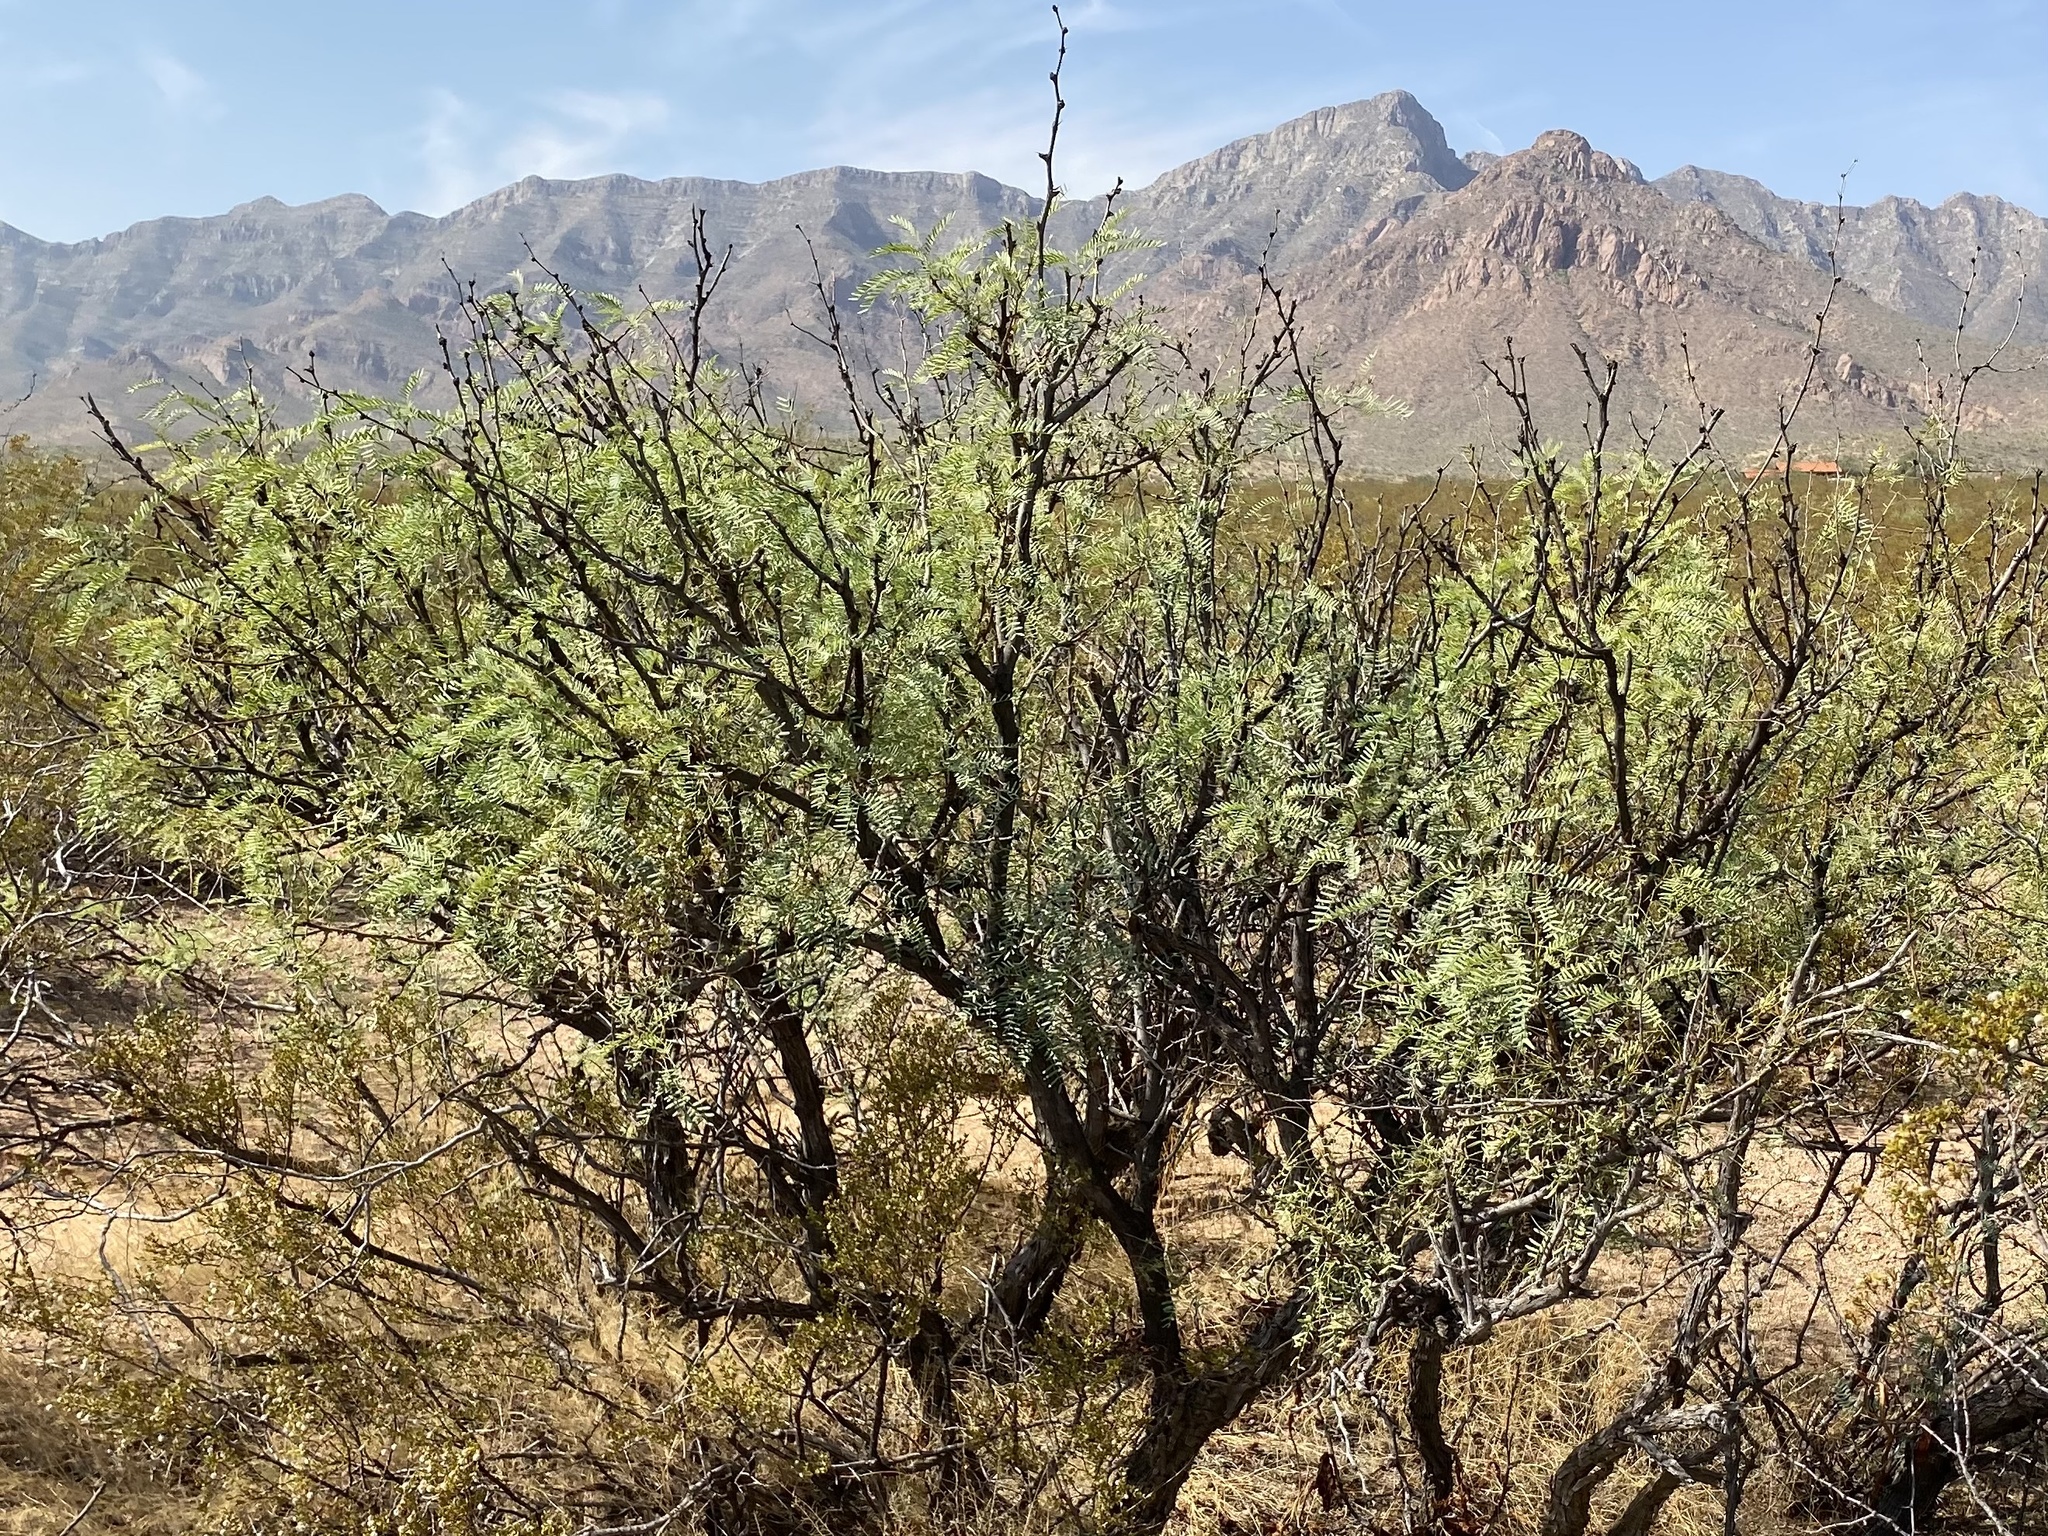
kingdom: Plantae
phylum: Tracheophyta
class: Magnoliopsida
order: Fabales
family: Fabaceae
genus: Prosopis
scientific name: Prosopis glandulosa
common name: Honey mesquite
